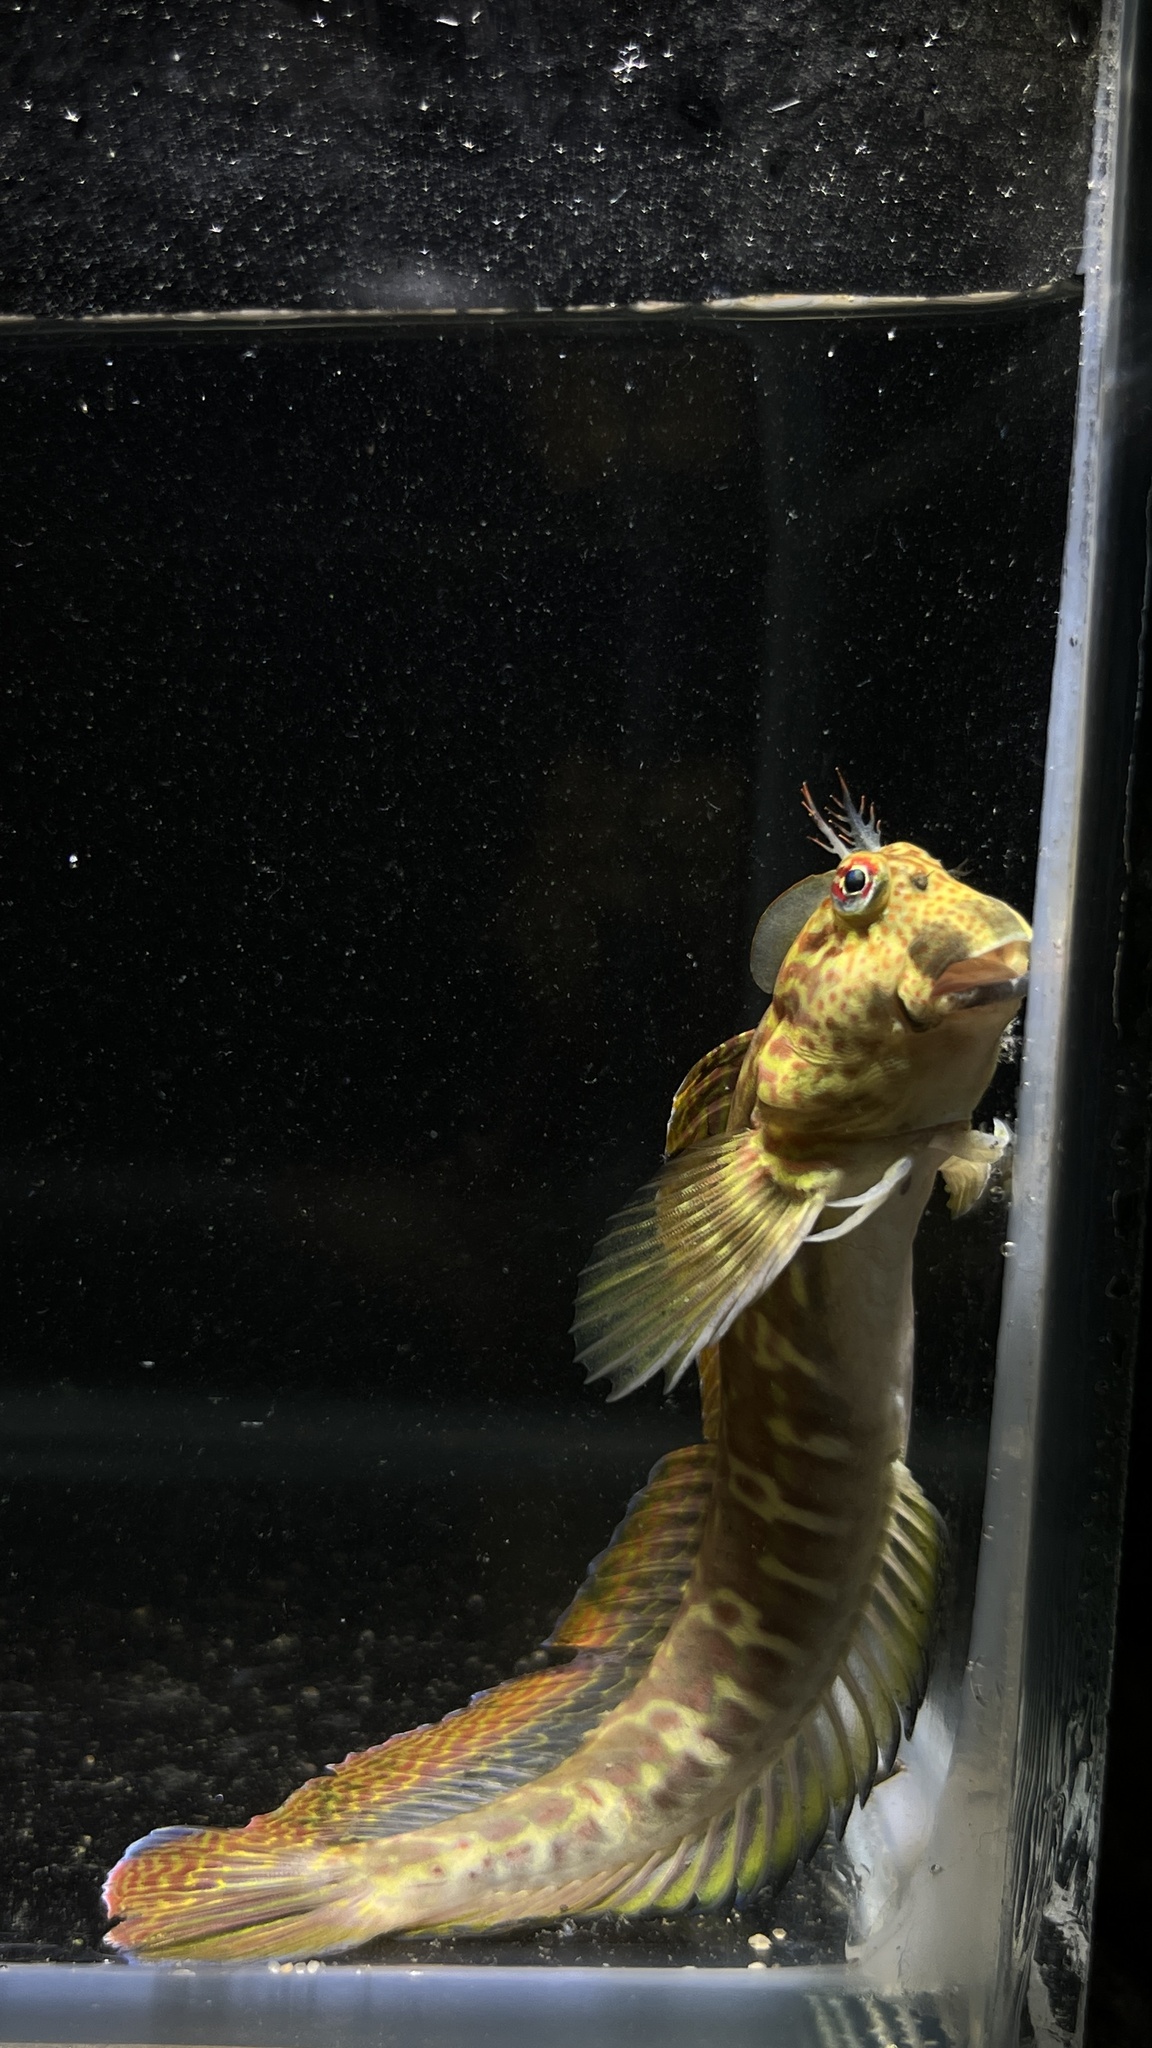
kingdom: Animalia
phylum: Chordata
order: Perciformes
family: Blenniidae
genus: Istiblennius
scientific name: Istiblennius dussumieri
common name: Dussumier's rockskipper
